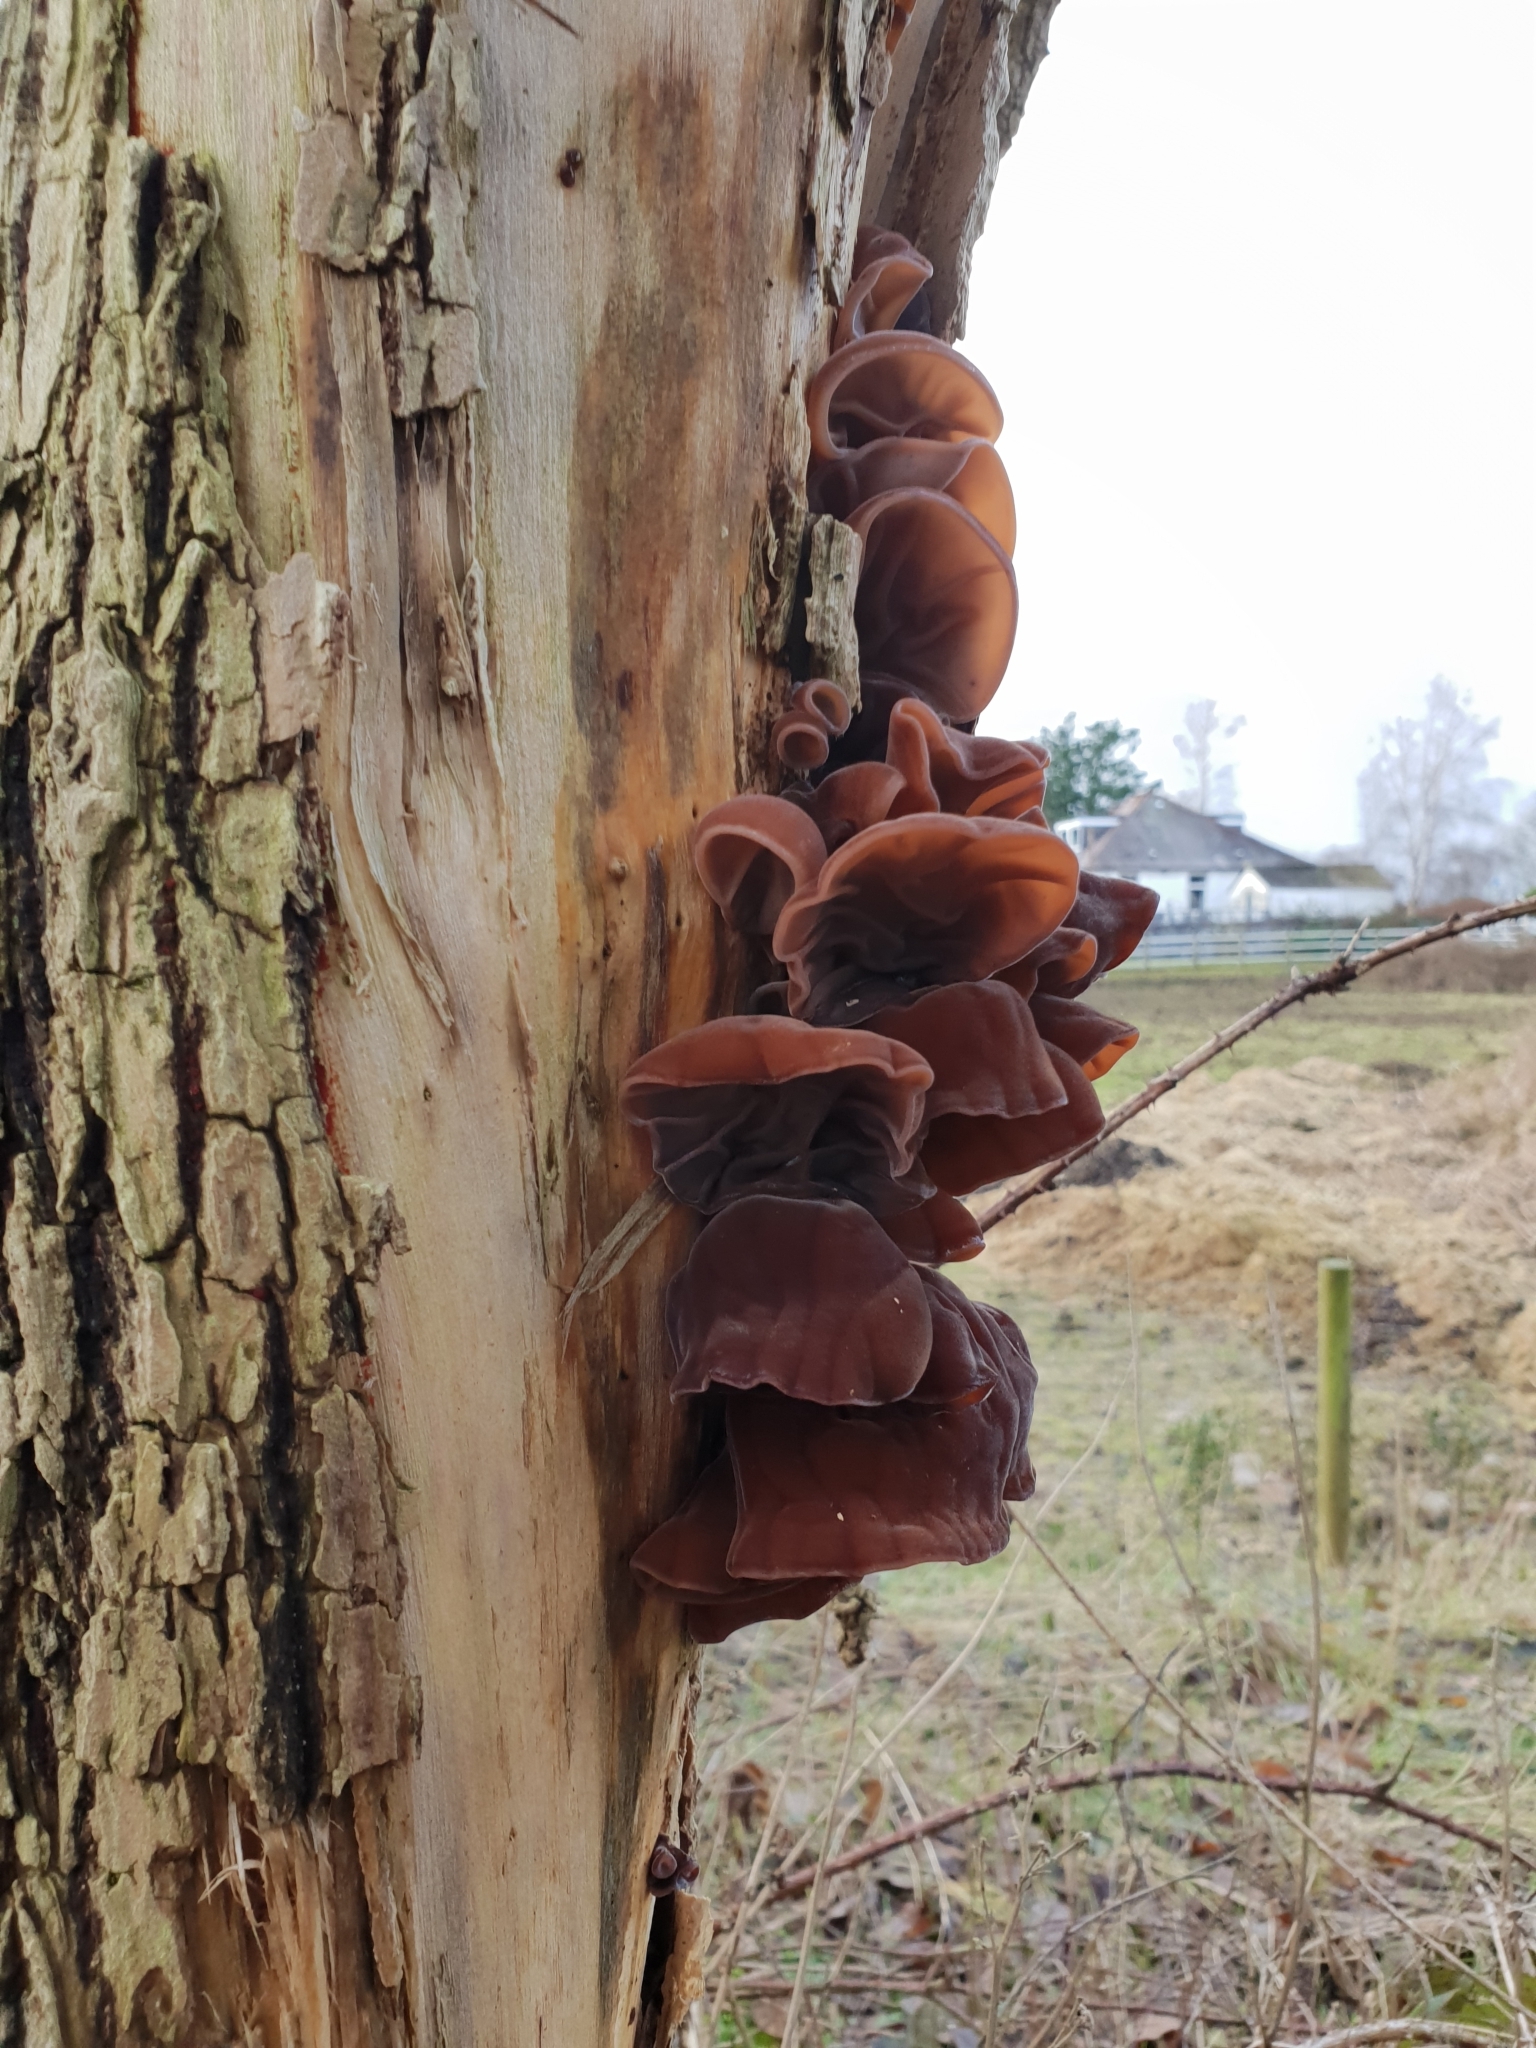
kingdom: Fungi
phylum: Basidiomycota
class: Agaricomycetes
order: Auriculariales
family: Auriculariaceae
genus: Auricularia
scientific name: Auricularia auricula-judae
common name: Jelly ear
